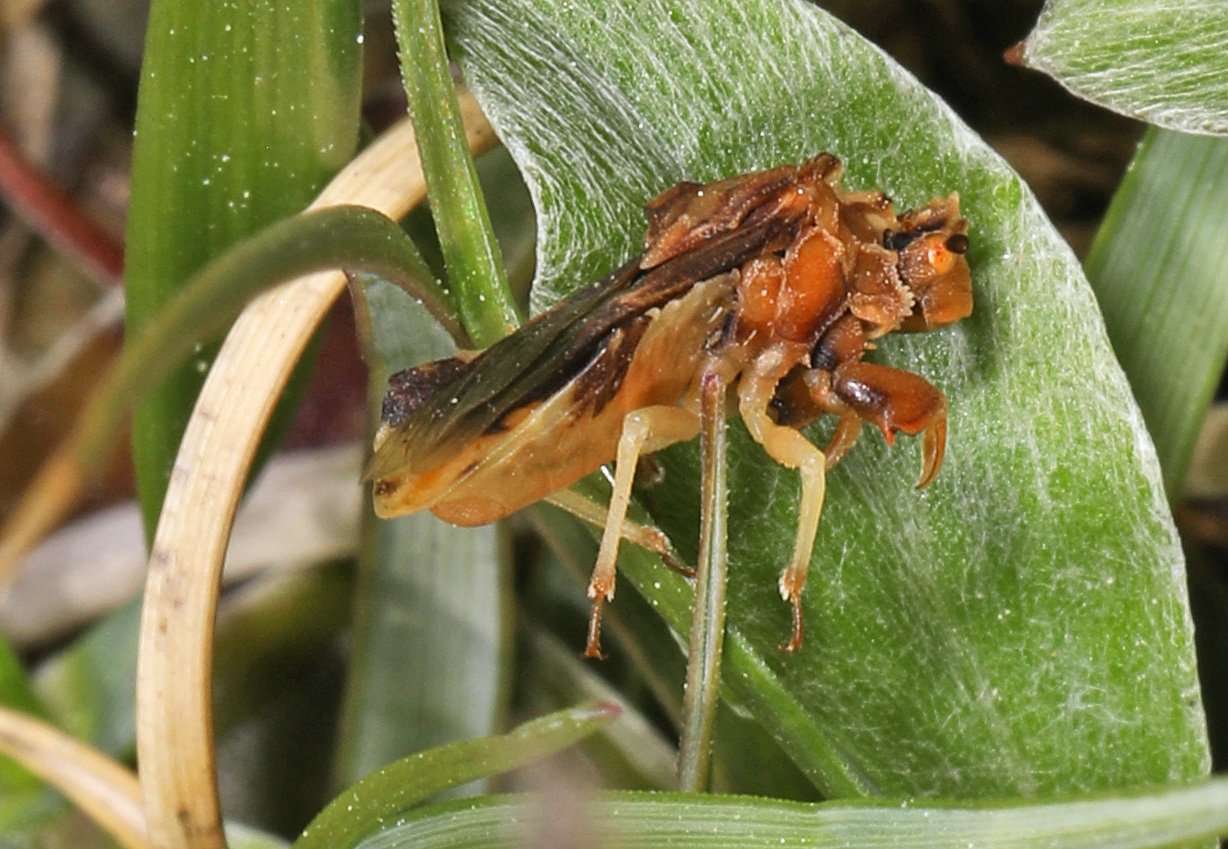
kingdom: Animalia
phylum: Arthropoda
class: Insecta
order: Hemiptera
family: Reduviidae
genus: Phymata
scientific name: Phymata fasciata
